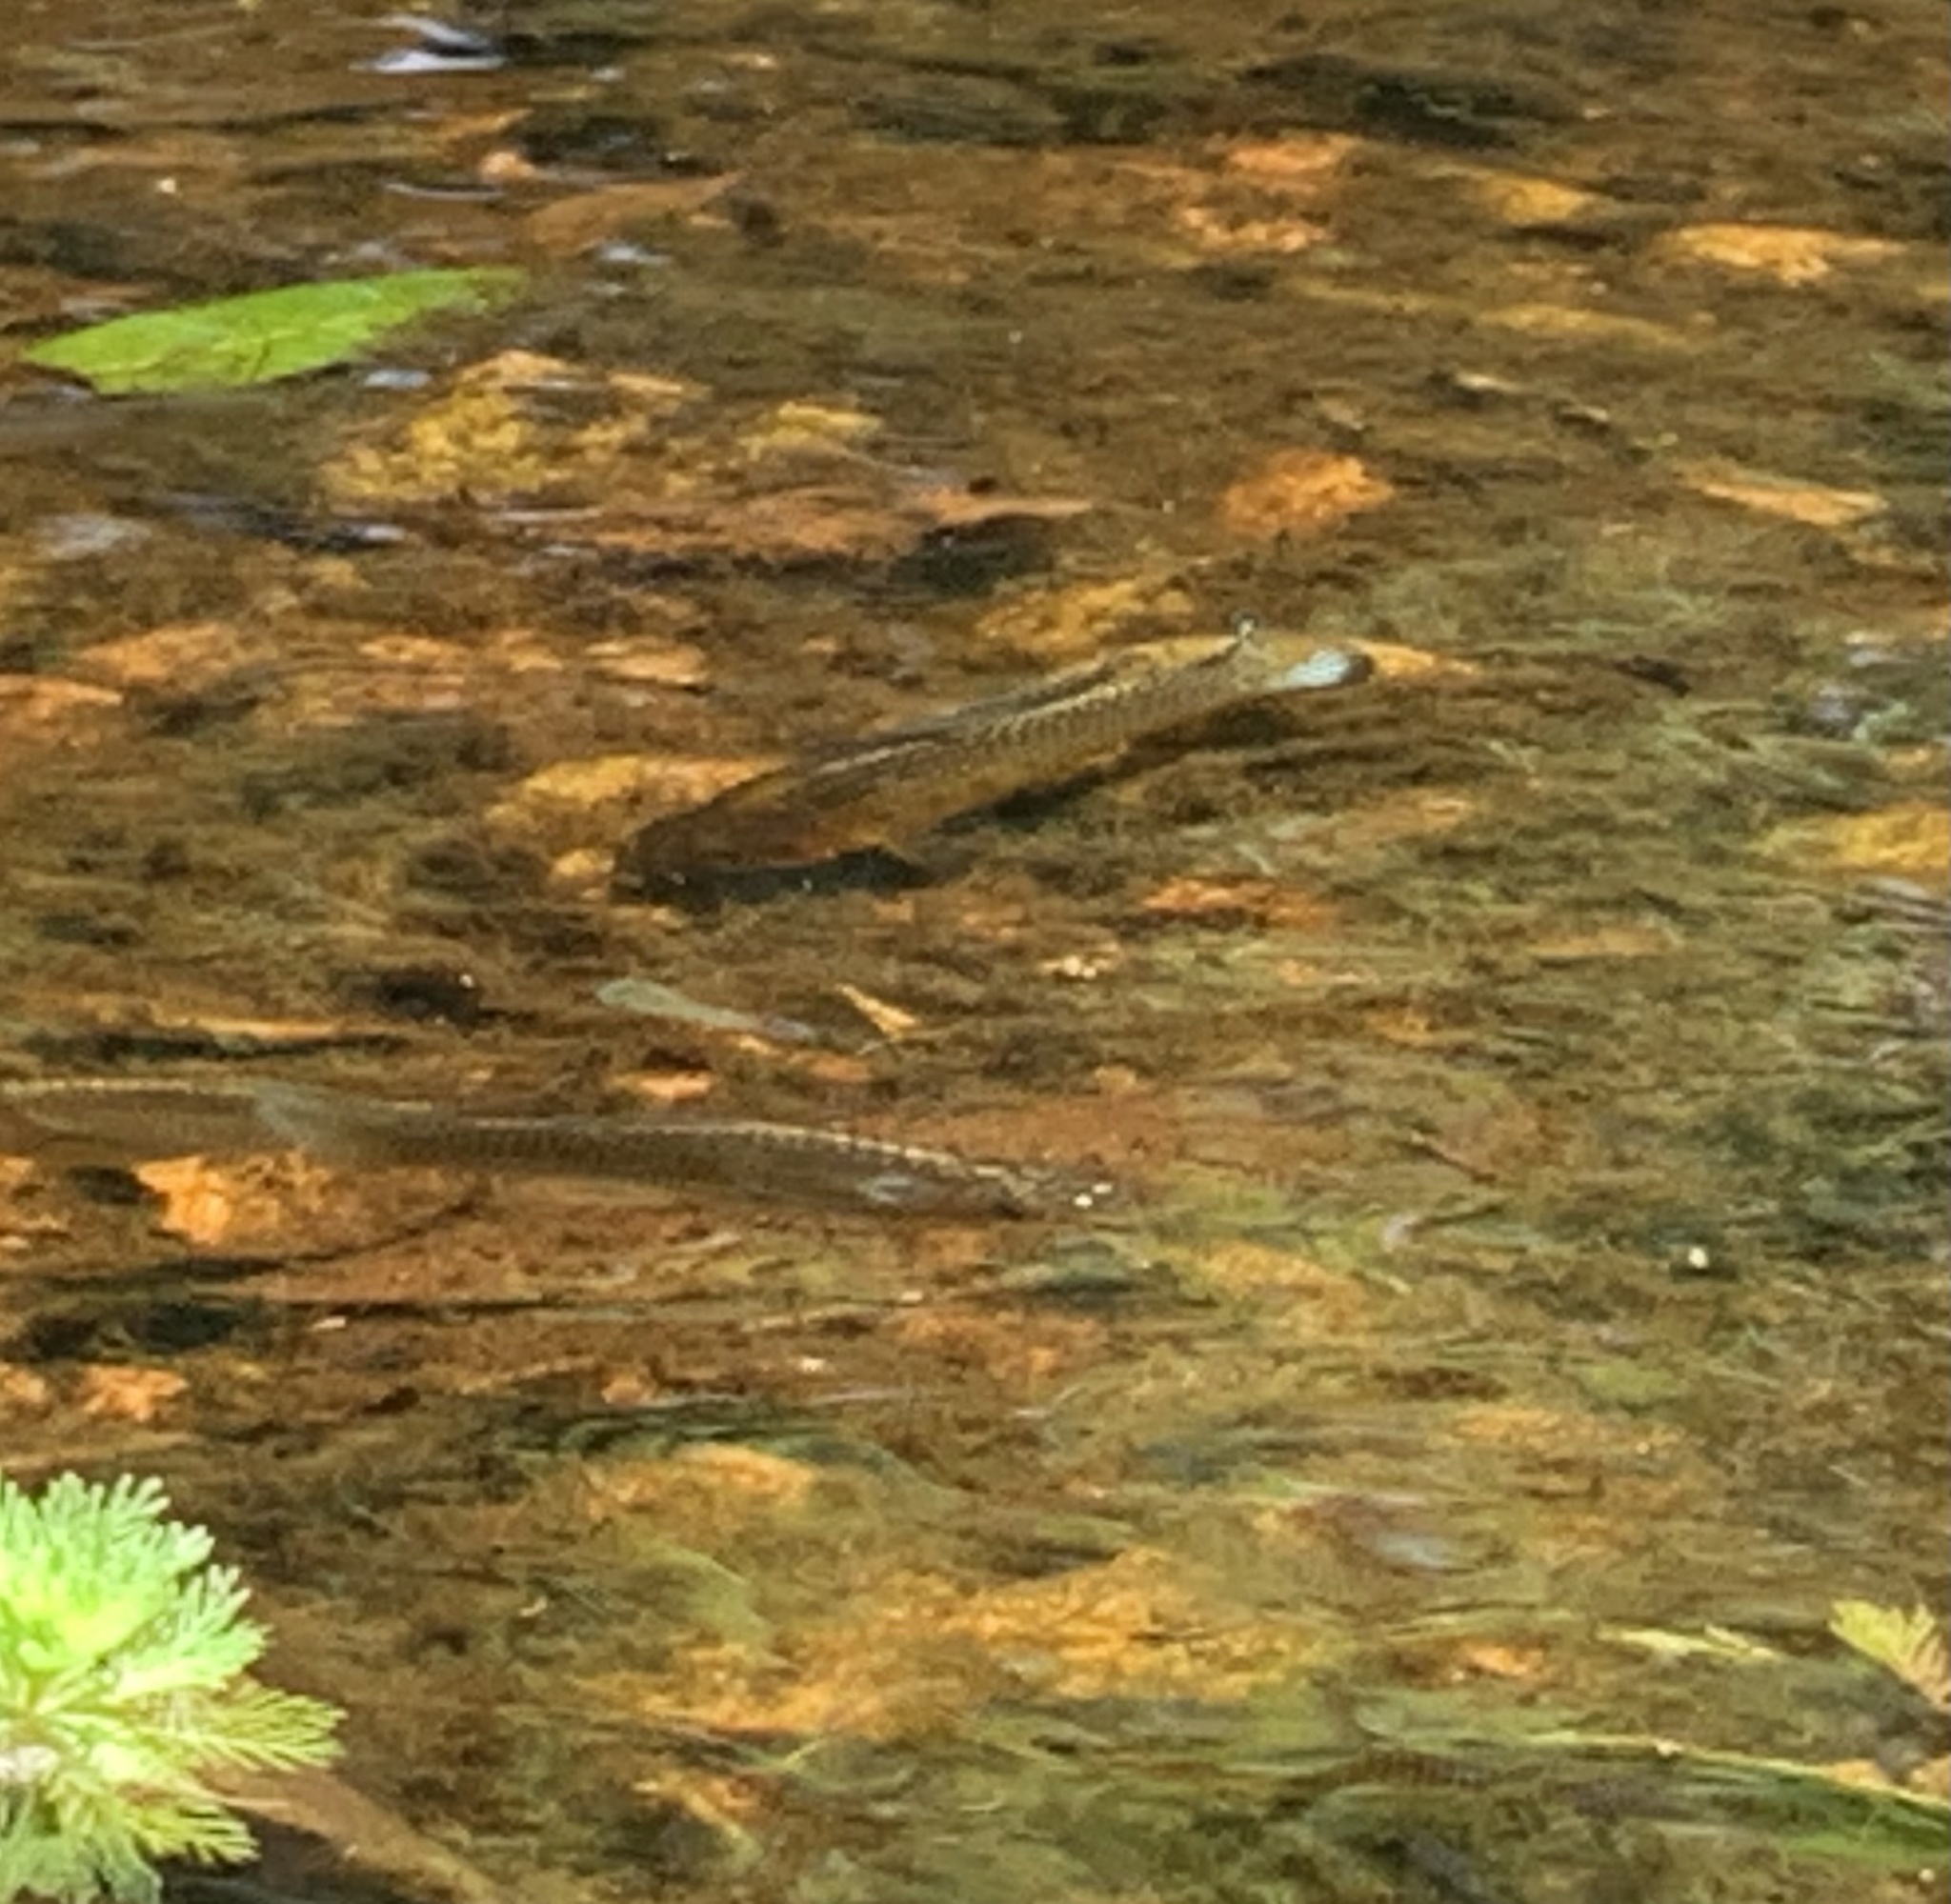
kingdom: Animalia
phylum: Chordata
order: Cyprinodontiformes
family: Poeciliidae
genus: Poecilia
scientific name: Poecilia latipinna
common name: Sailfin molly
